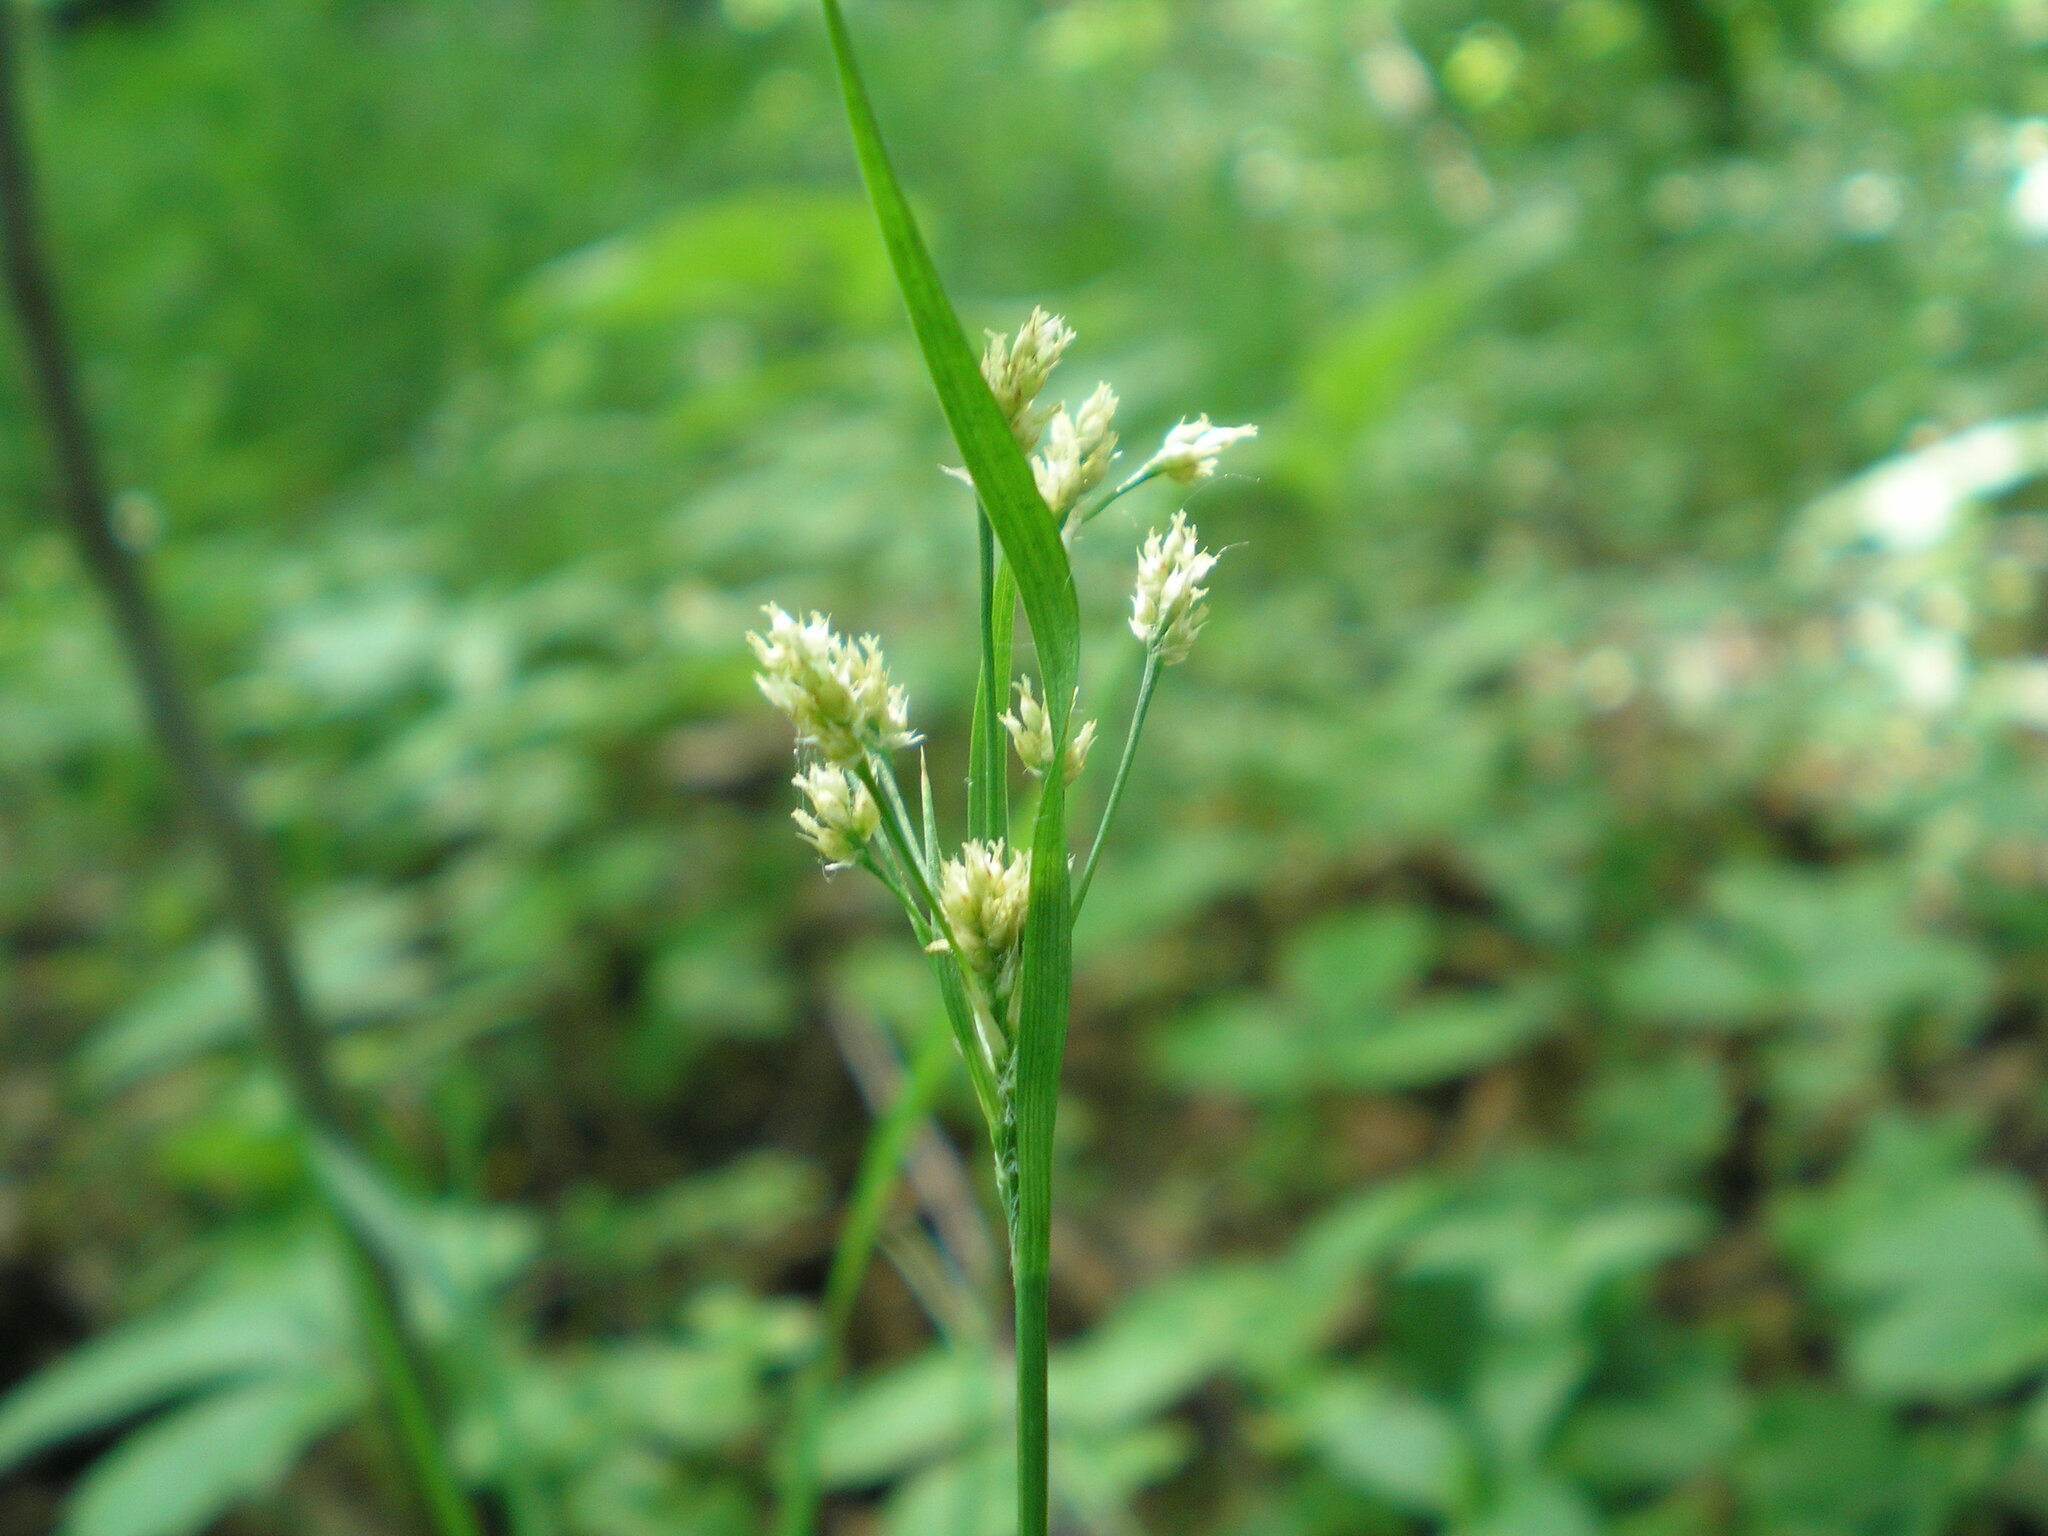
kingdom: Plantae
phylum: Tracheophyta
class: Liliopsida
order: Poales
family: Juncaceae
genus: Luzula
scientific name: Luzula pallescens
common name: Fen wood-rush
